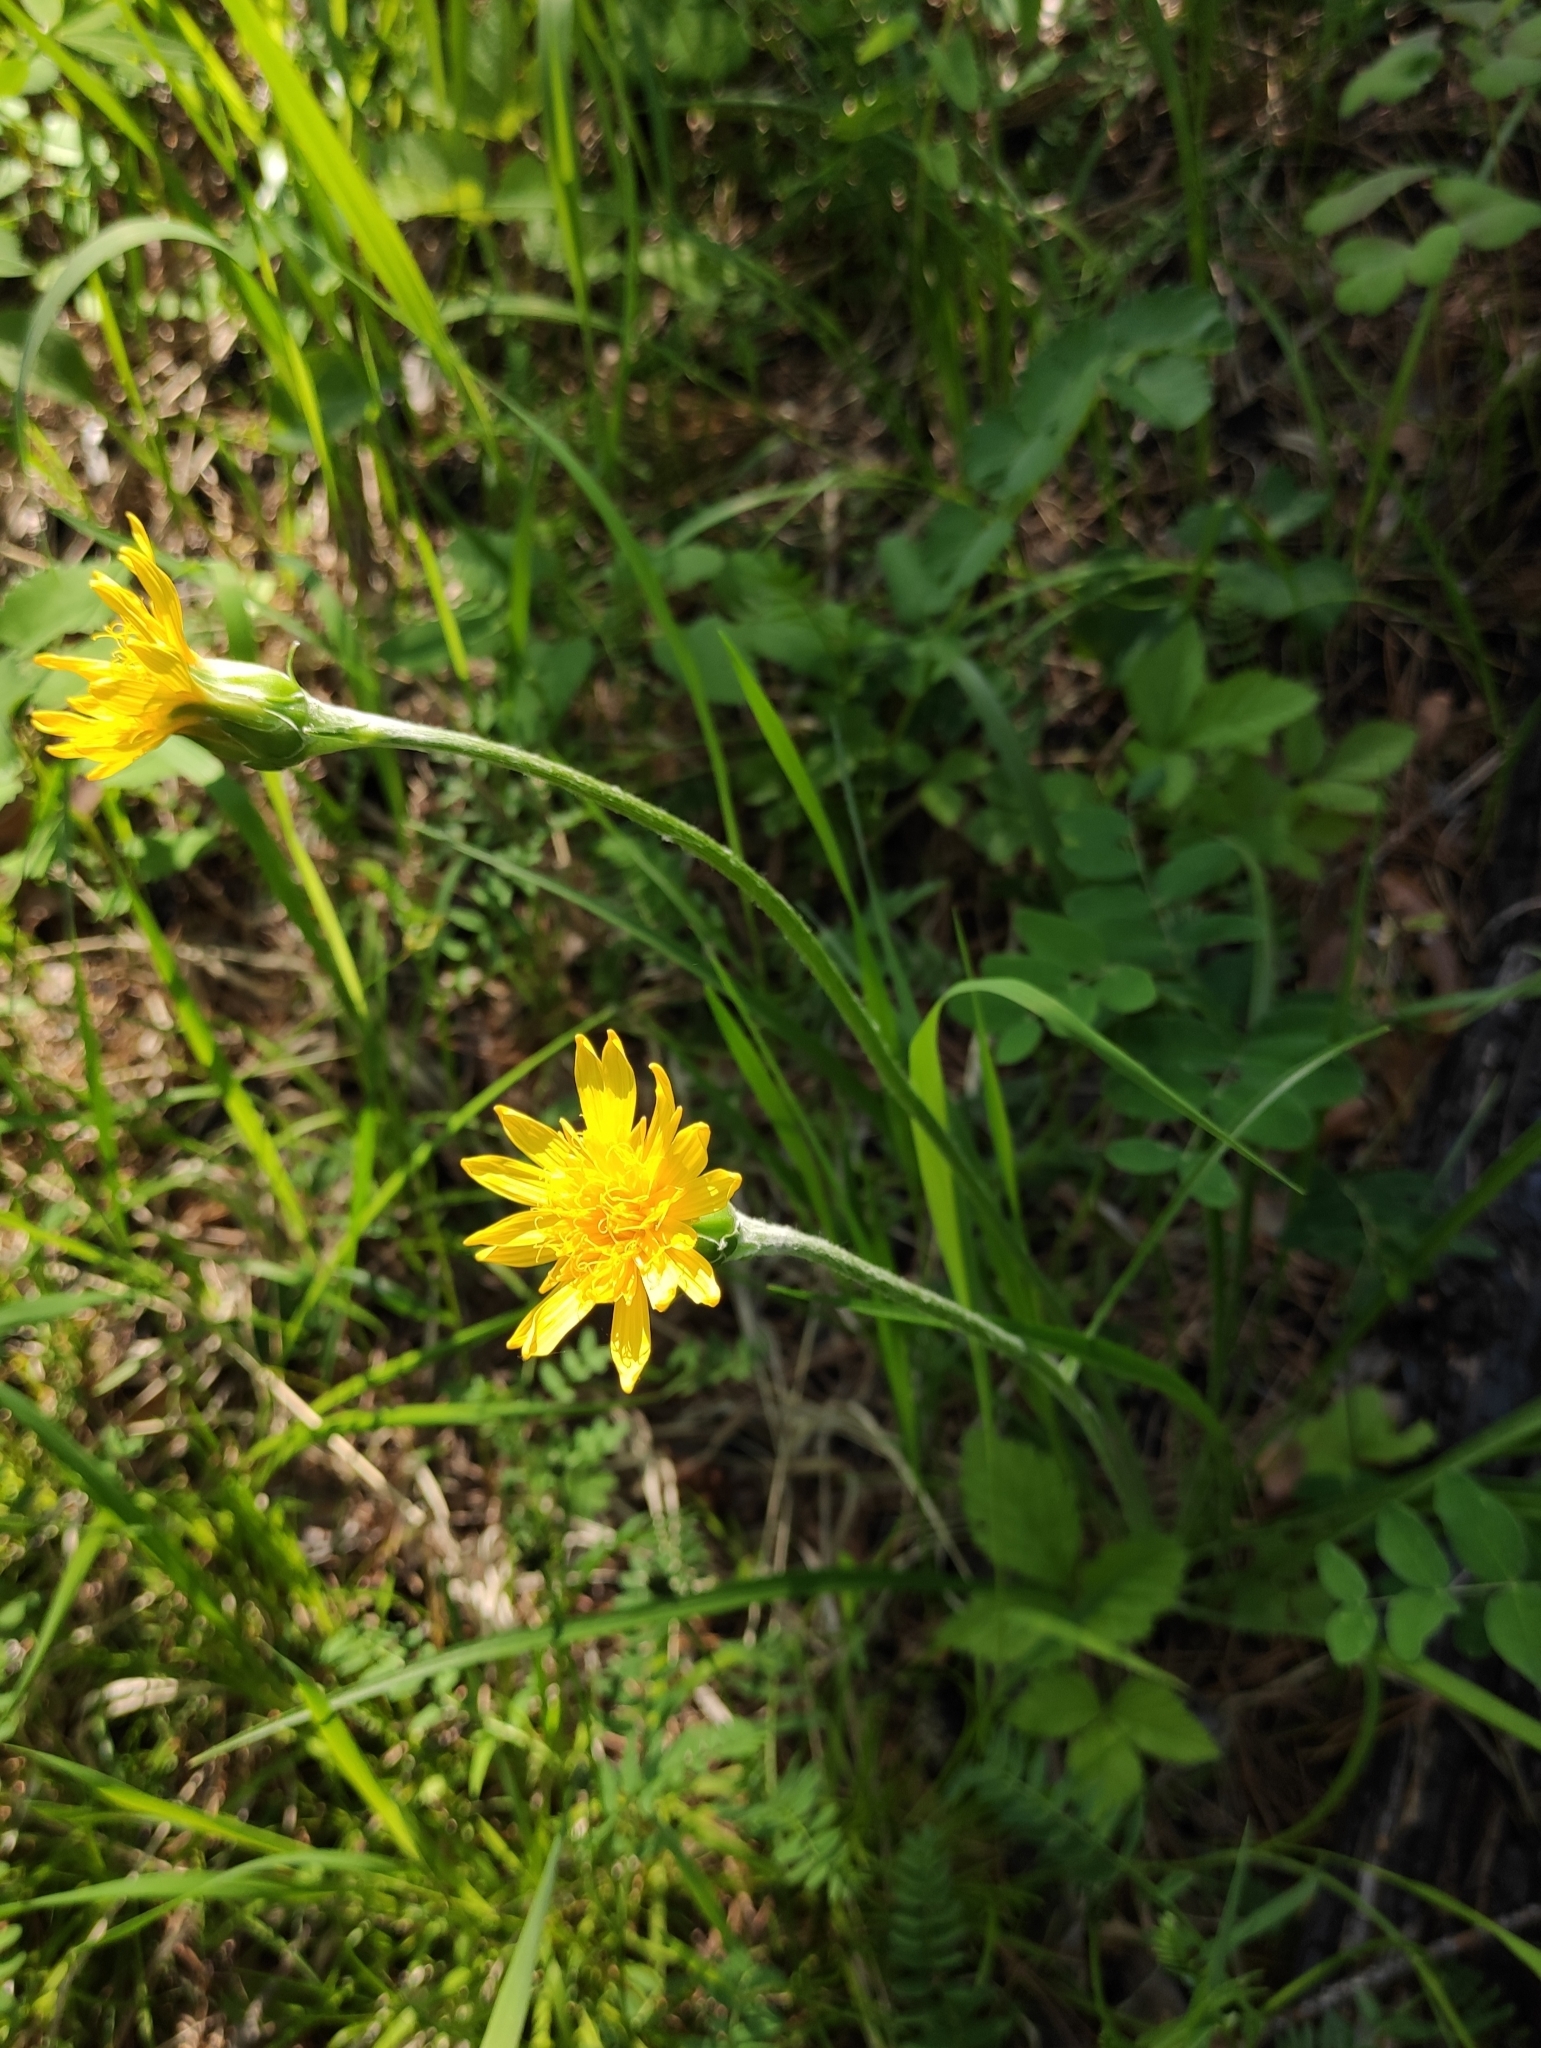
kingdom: Plantae
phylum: Tracheophyta
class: Magnoliopsida
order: Asterales
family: Asteraceae
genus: Scorzonera
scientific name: Scorzonera radiata
